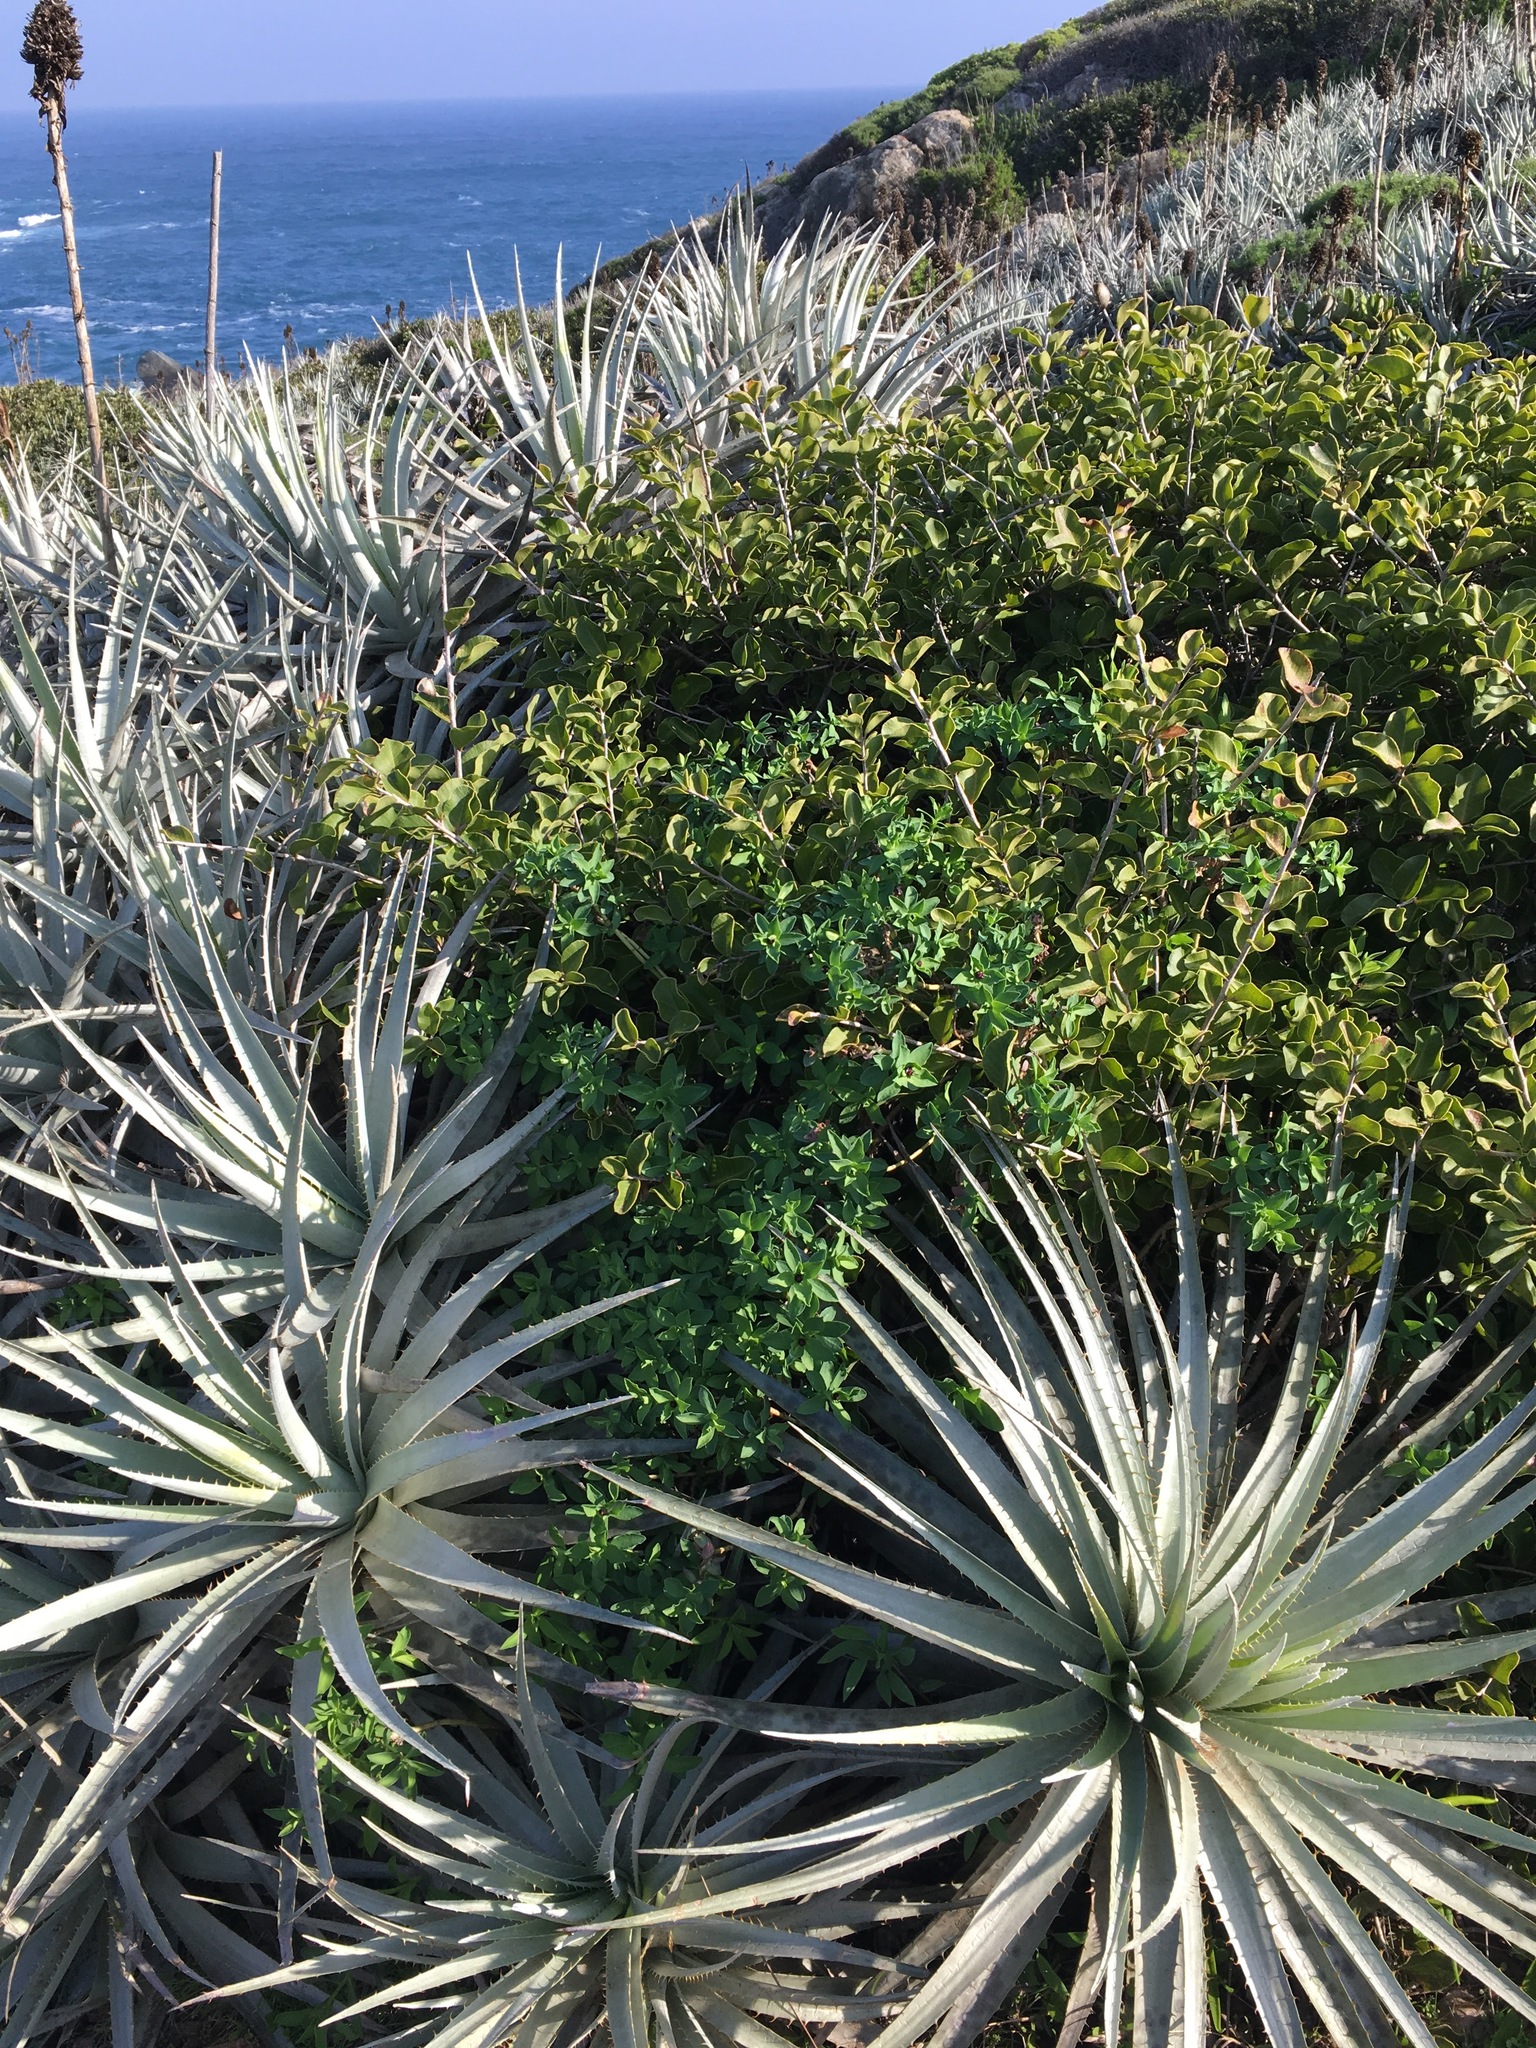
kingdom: Plantae
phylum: Tracheophyta
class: Liliopsida
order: Poales
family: Bromeliaceae
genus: Puya
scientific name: Puya venusta
